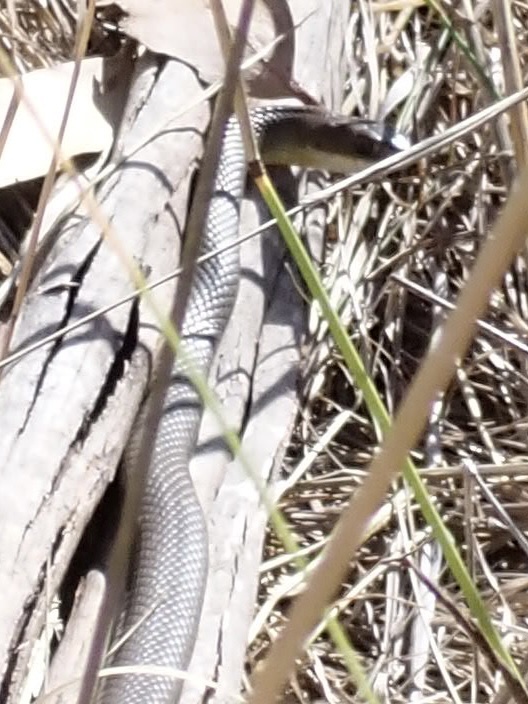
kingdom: Animalia
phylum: Chordata
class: Squamata
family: Colubridae
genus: Coluber
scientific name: Coluber constrictor
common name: Eastern racer
